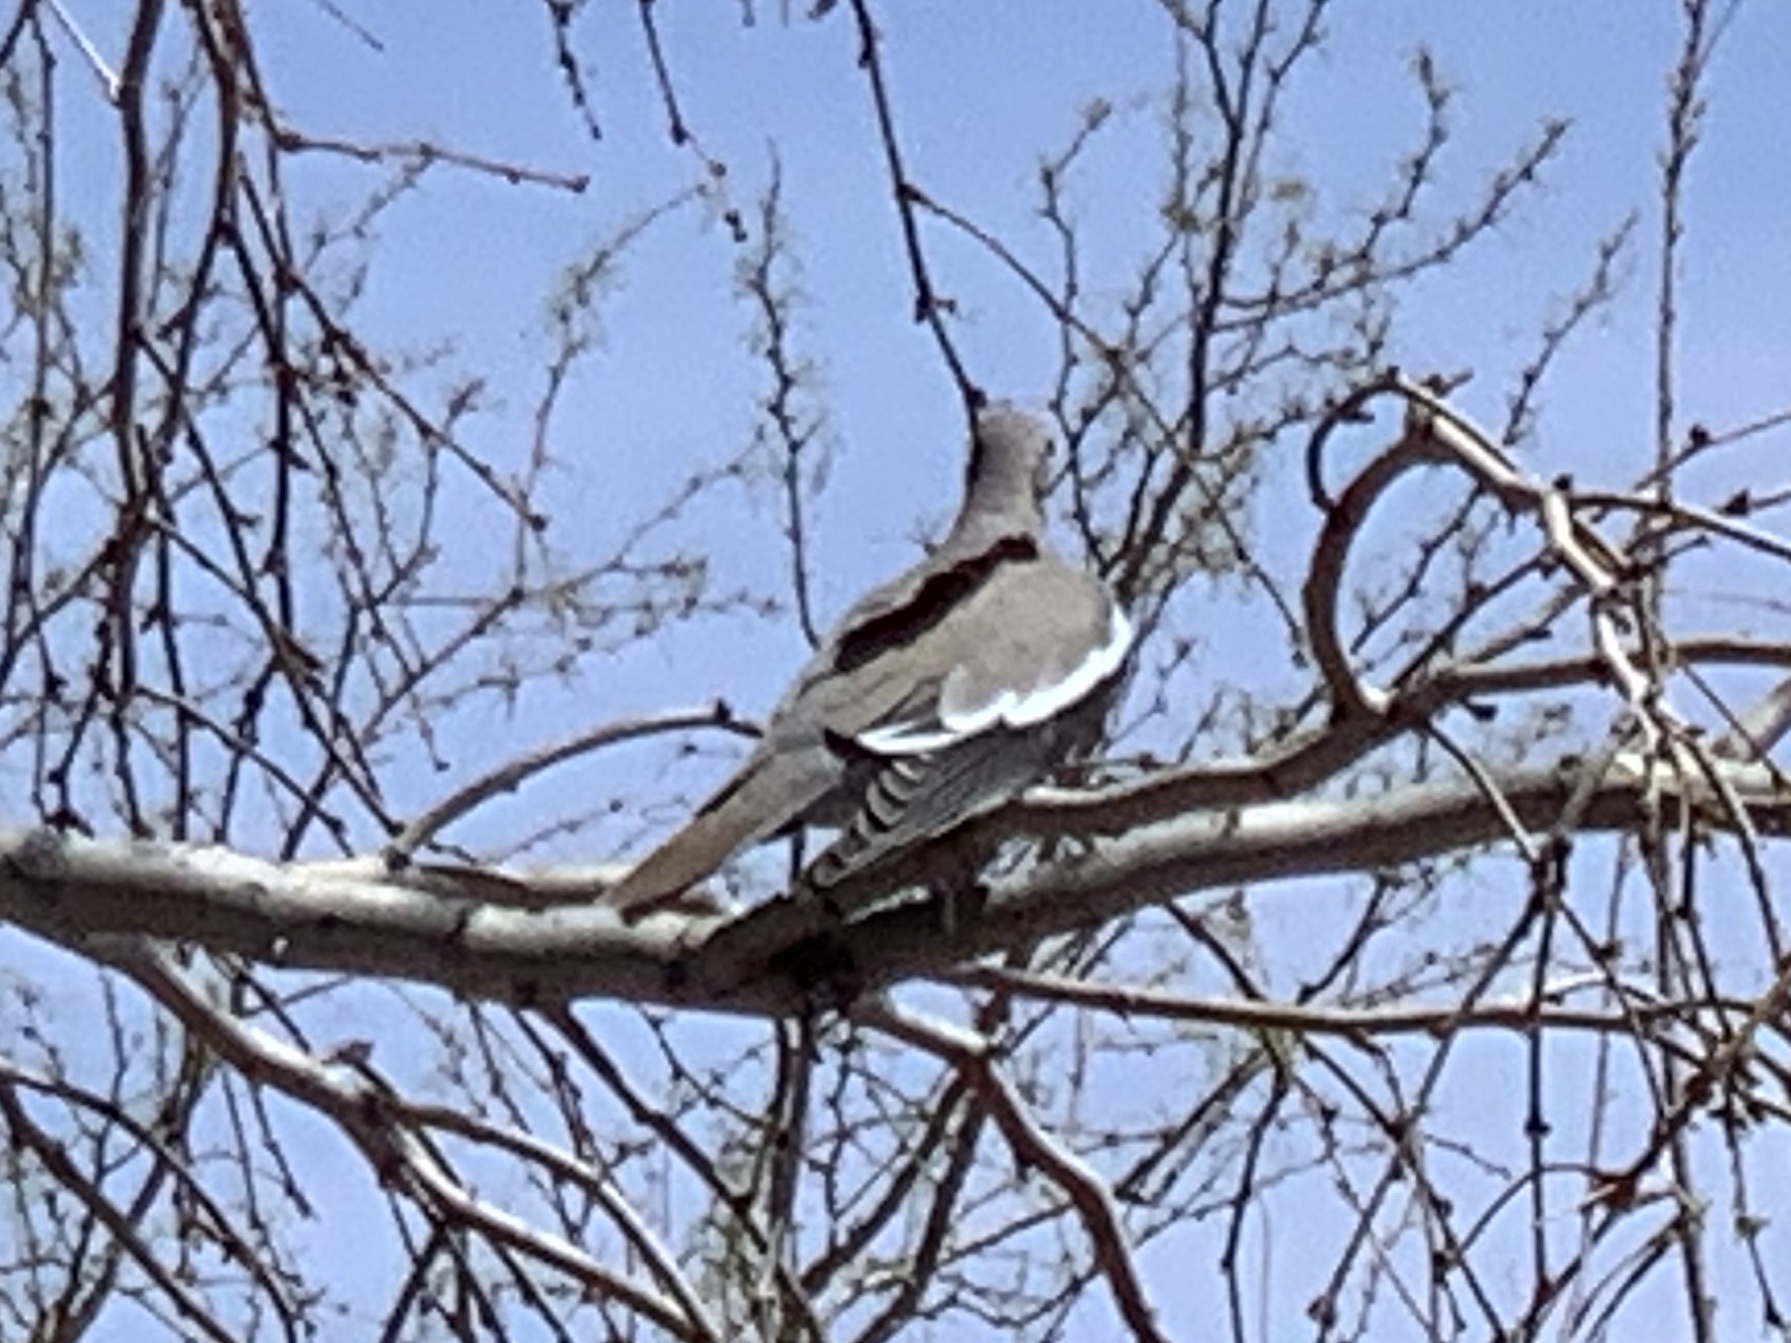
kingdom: Animalia
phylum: Chordata
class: Aves
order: Columbiformes
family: Columbidae
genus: Zenaida
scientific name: Zenaida asiatica
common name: White-winged dove
